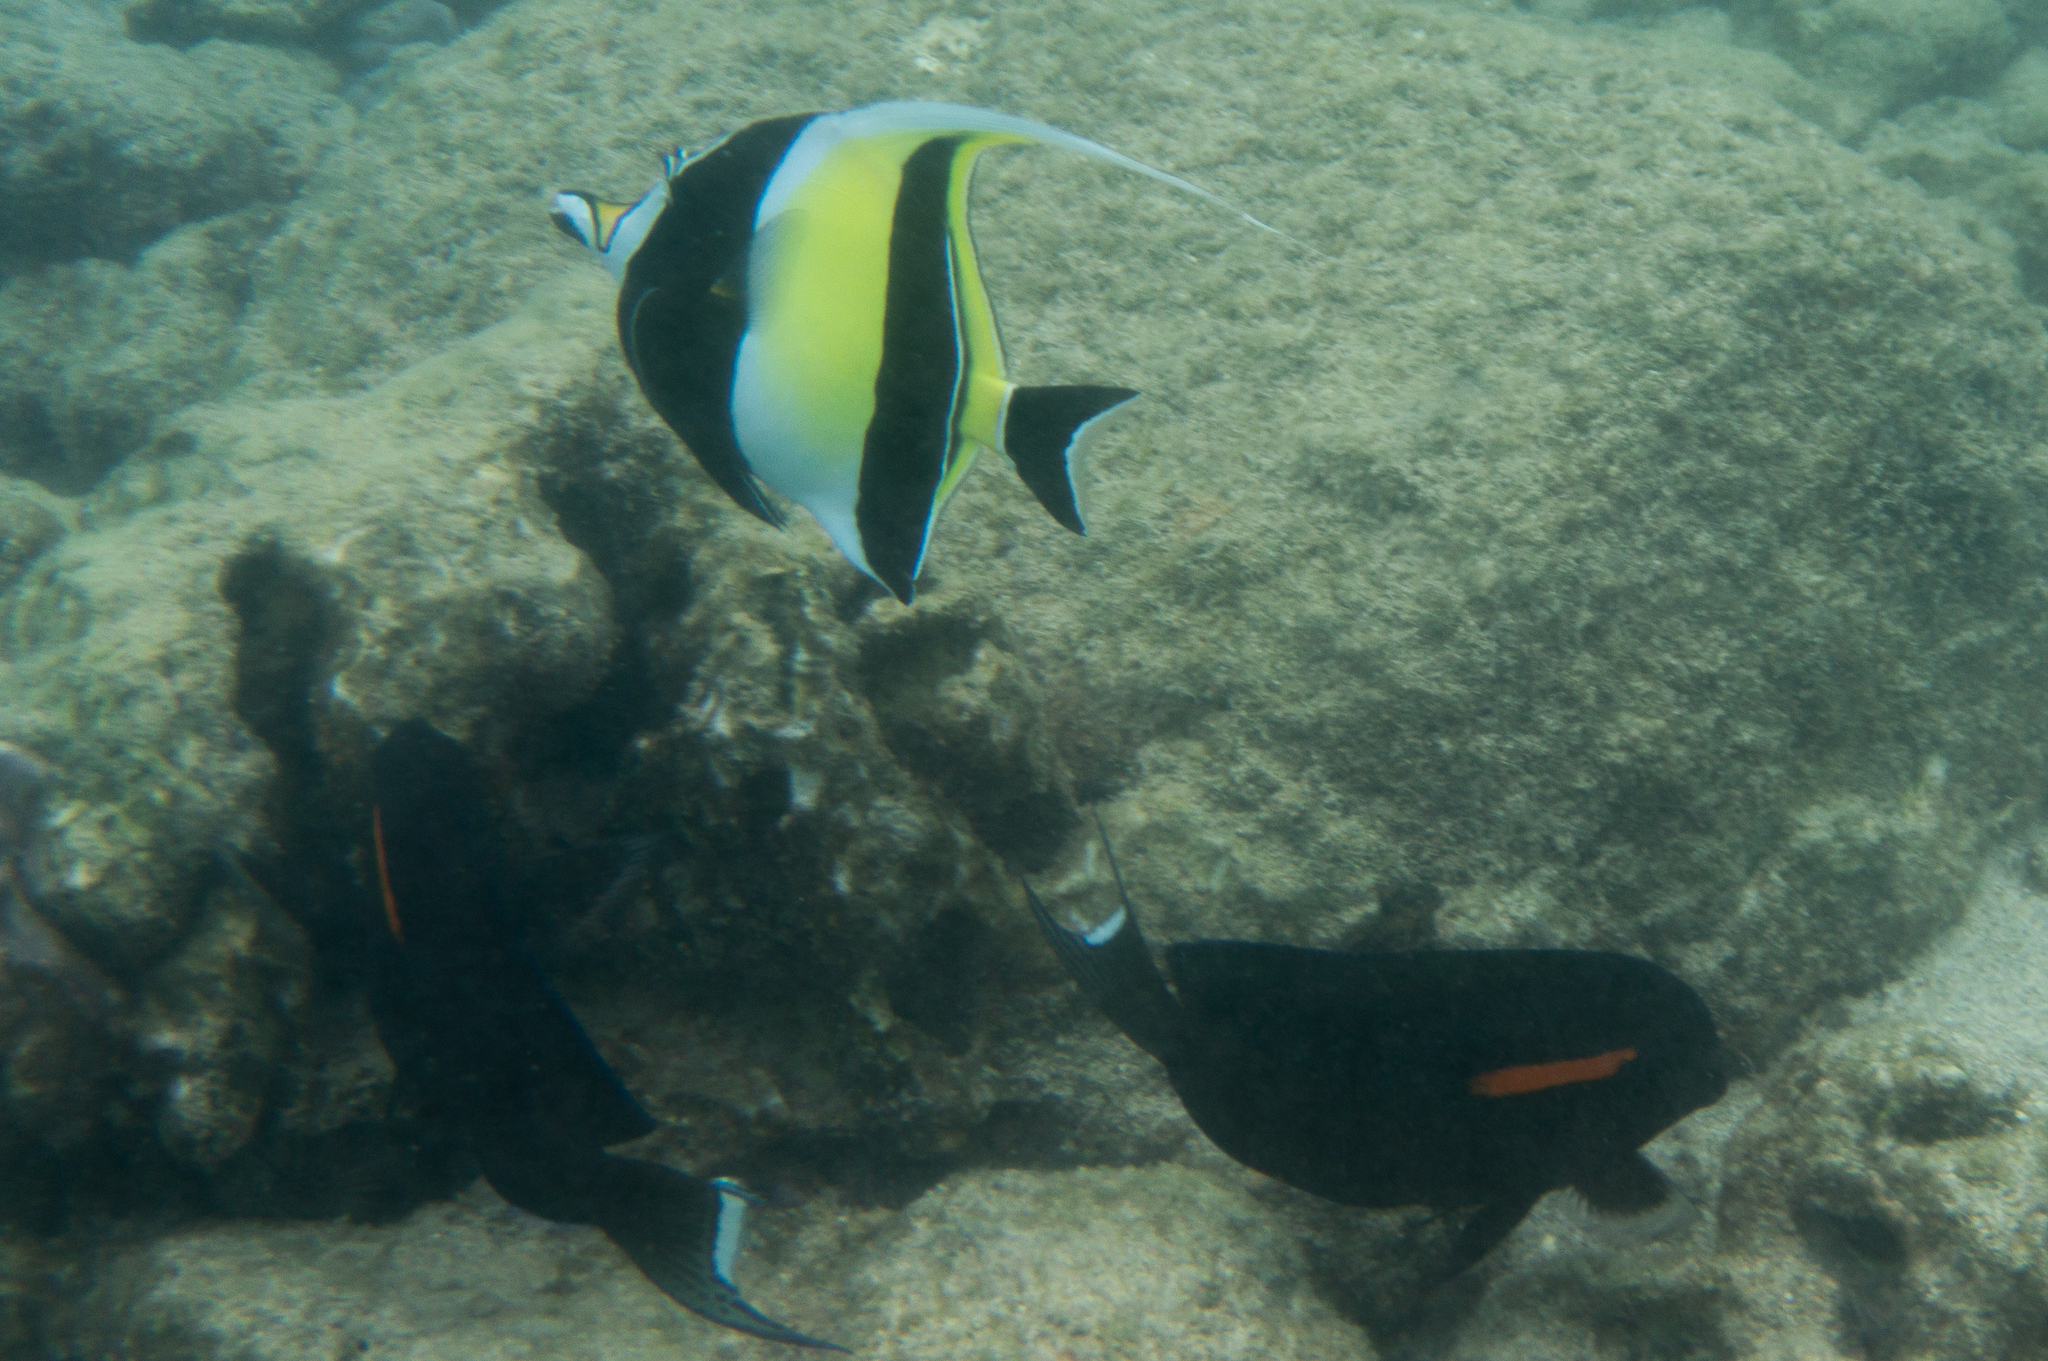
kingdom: Animalia
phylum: Chordata
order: Perciformes
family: Zanclidae
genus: Zanclus
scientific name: Zanclus cornutus
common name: Moorish idol
